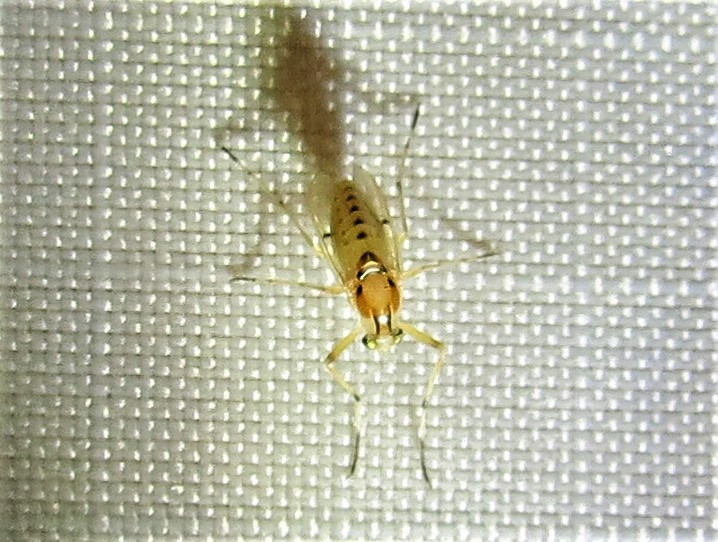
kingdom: Animalia
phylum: Arthropoda
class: Insecta
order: Diptera
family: Chironomidae
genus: Coelotanypus
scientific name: Coelotanypus concinnus
